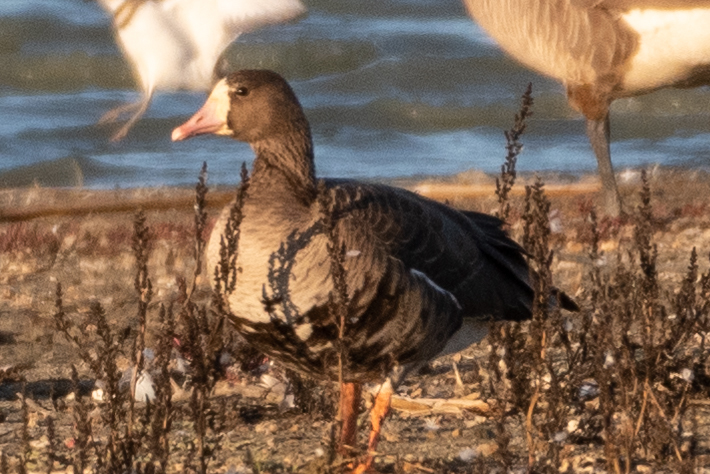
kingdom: Animalia
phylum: Chordata
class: Aves
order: Anseriformes
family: Anatidae
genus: Anser
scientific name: Anser albifrons
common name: Greater white-fronted goose
